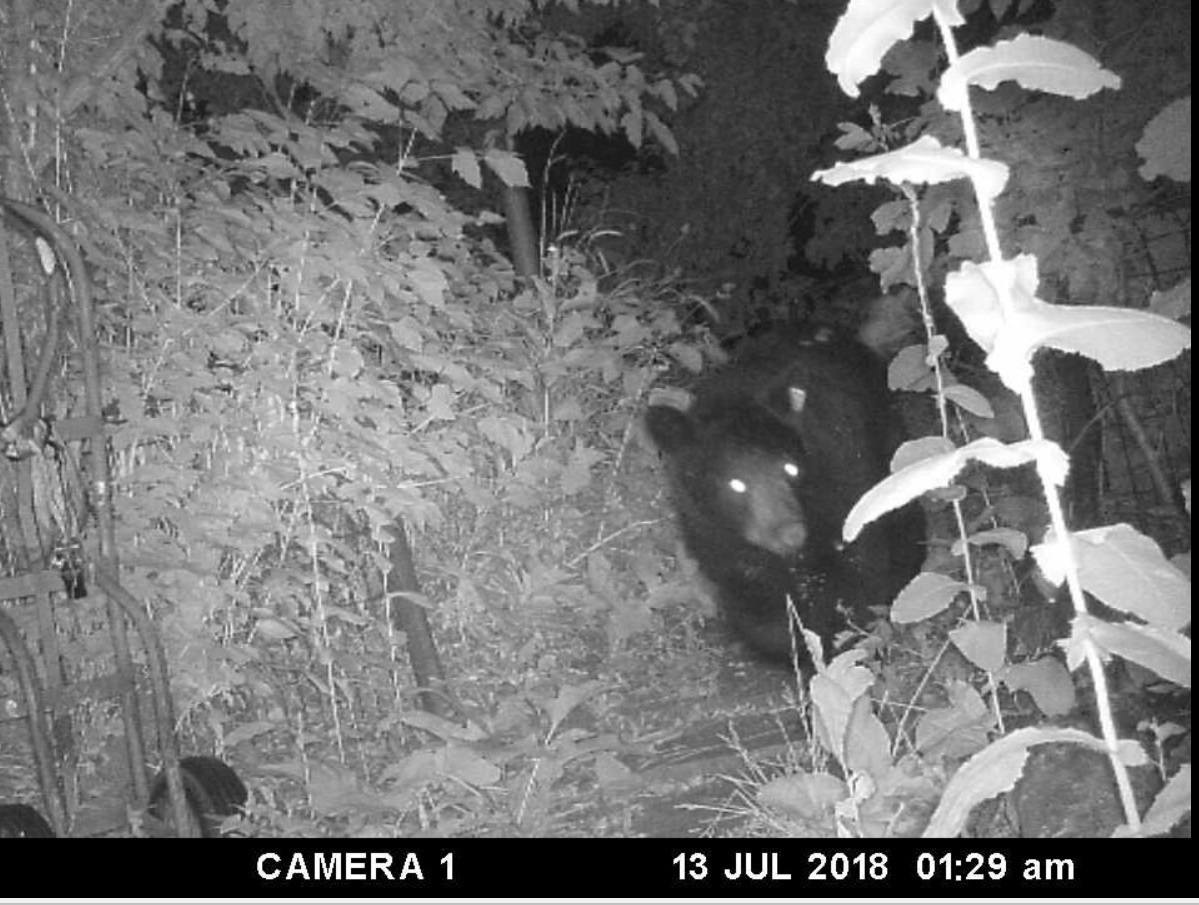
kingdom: Animalia
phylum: Chordata
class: Mammalia
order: Carnivora
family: Ursidae
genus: Ursus
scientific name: Ursus americanus
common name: American black bear
